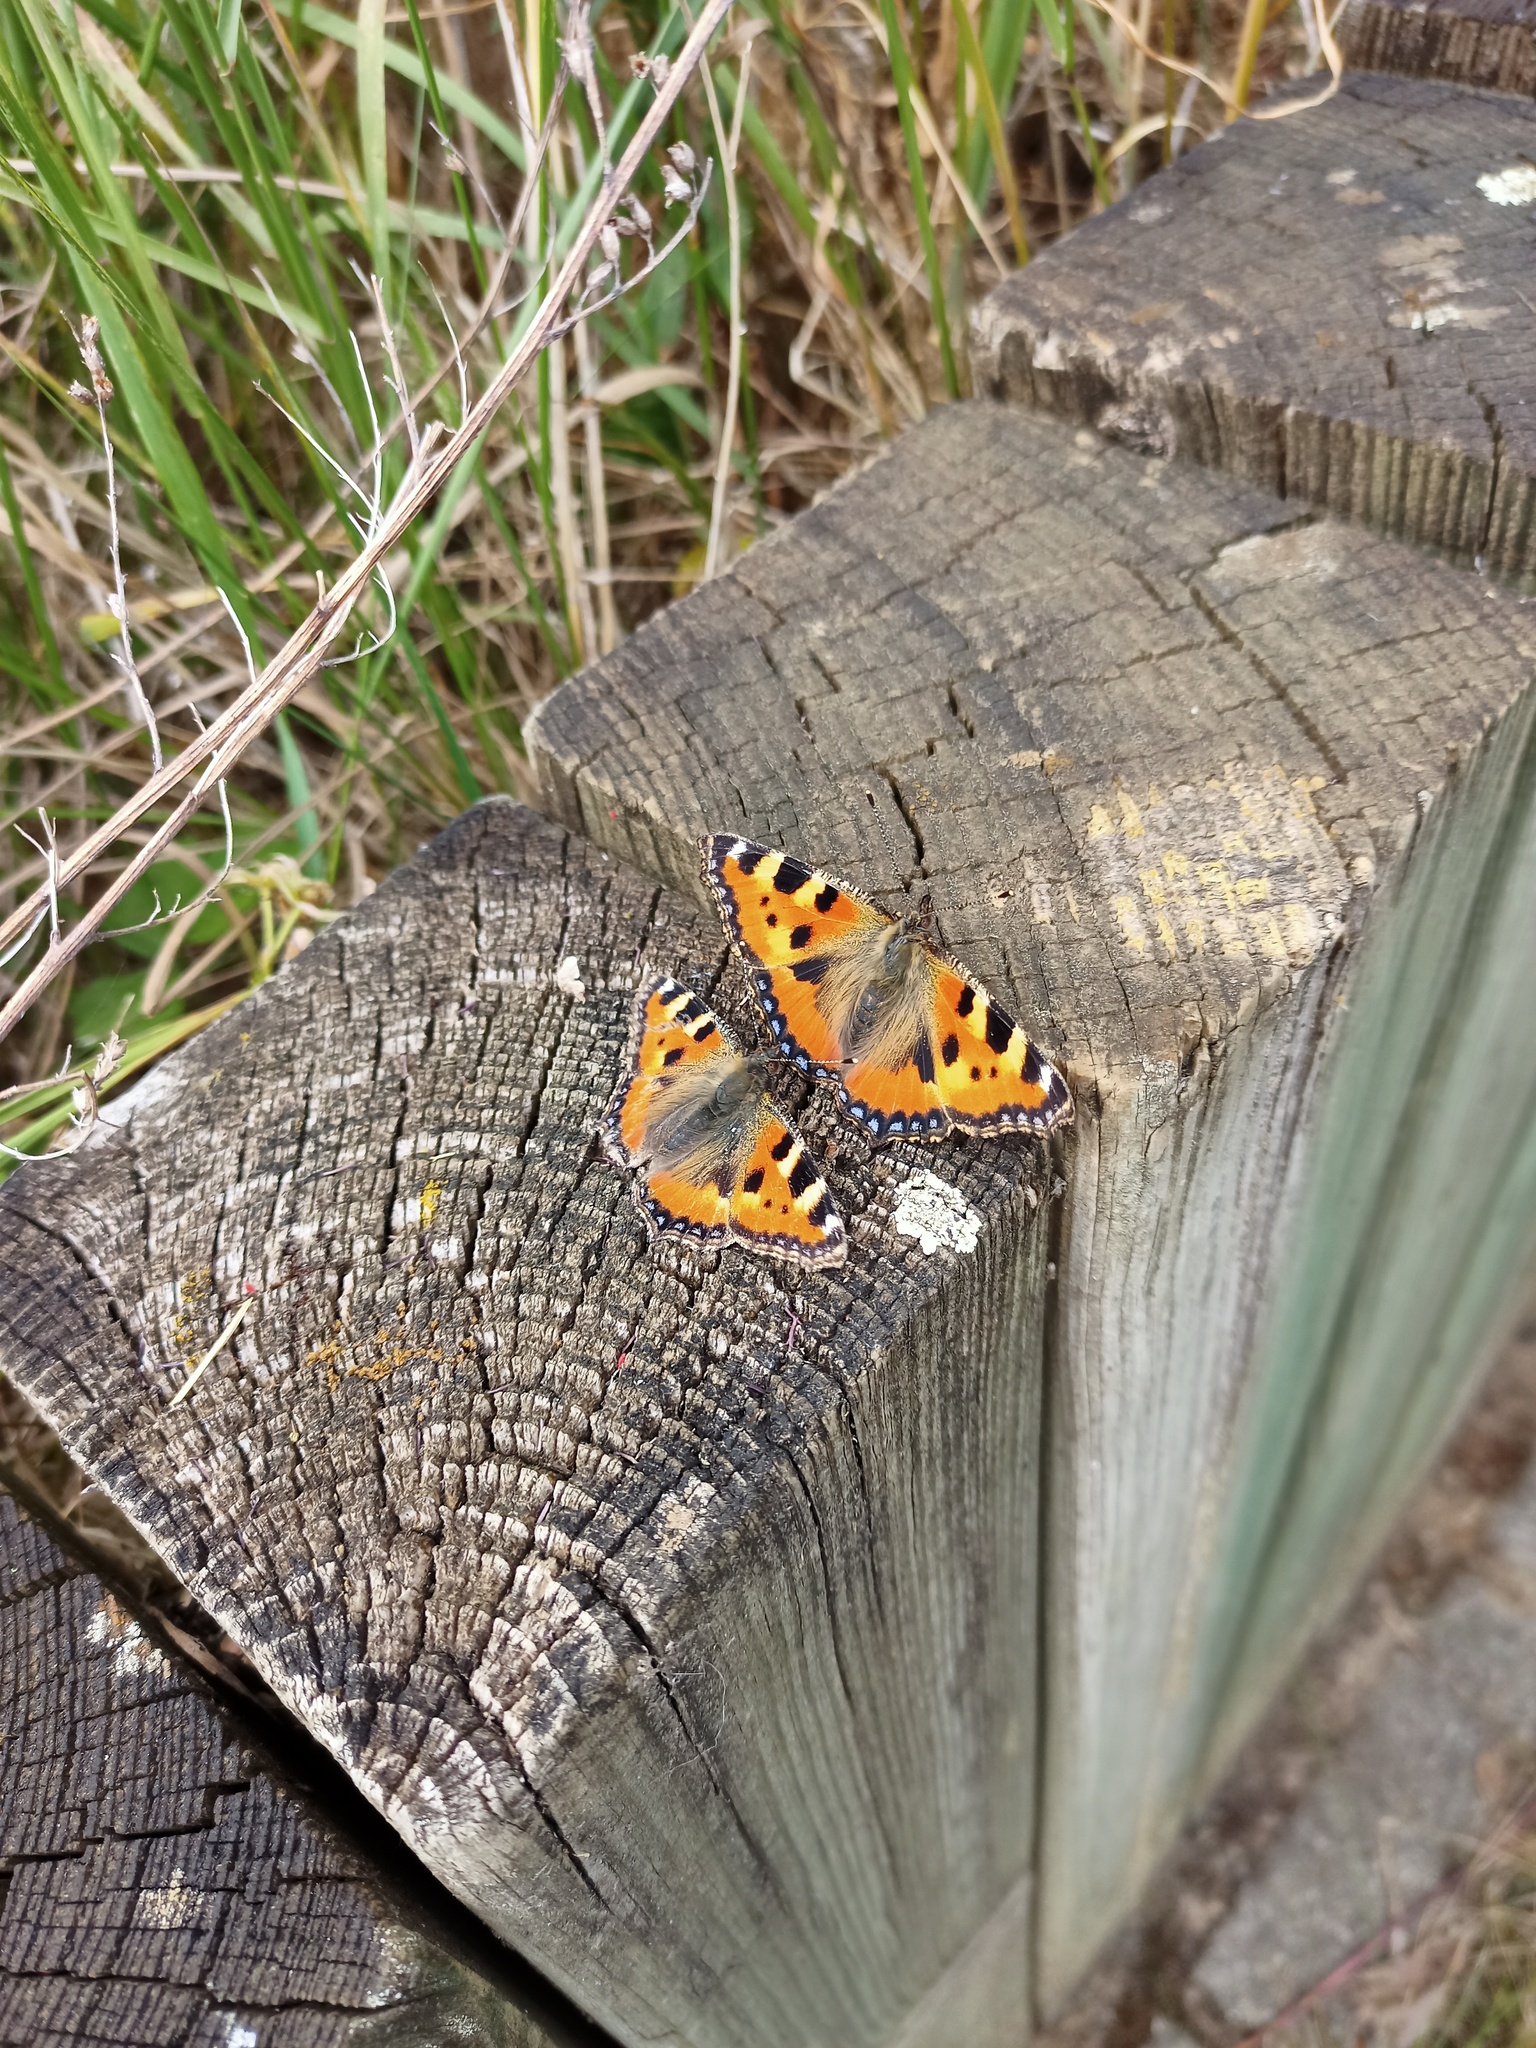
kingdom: Animalia
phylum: Arthropoda
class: Insecta
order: Lepidoptera
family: Nymphalidae
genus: Aglais
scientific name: Aglais urticae
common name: Small tortoiseshell
